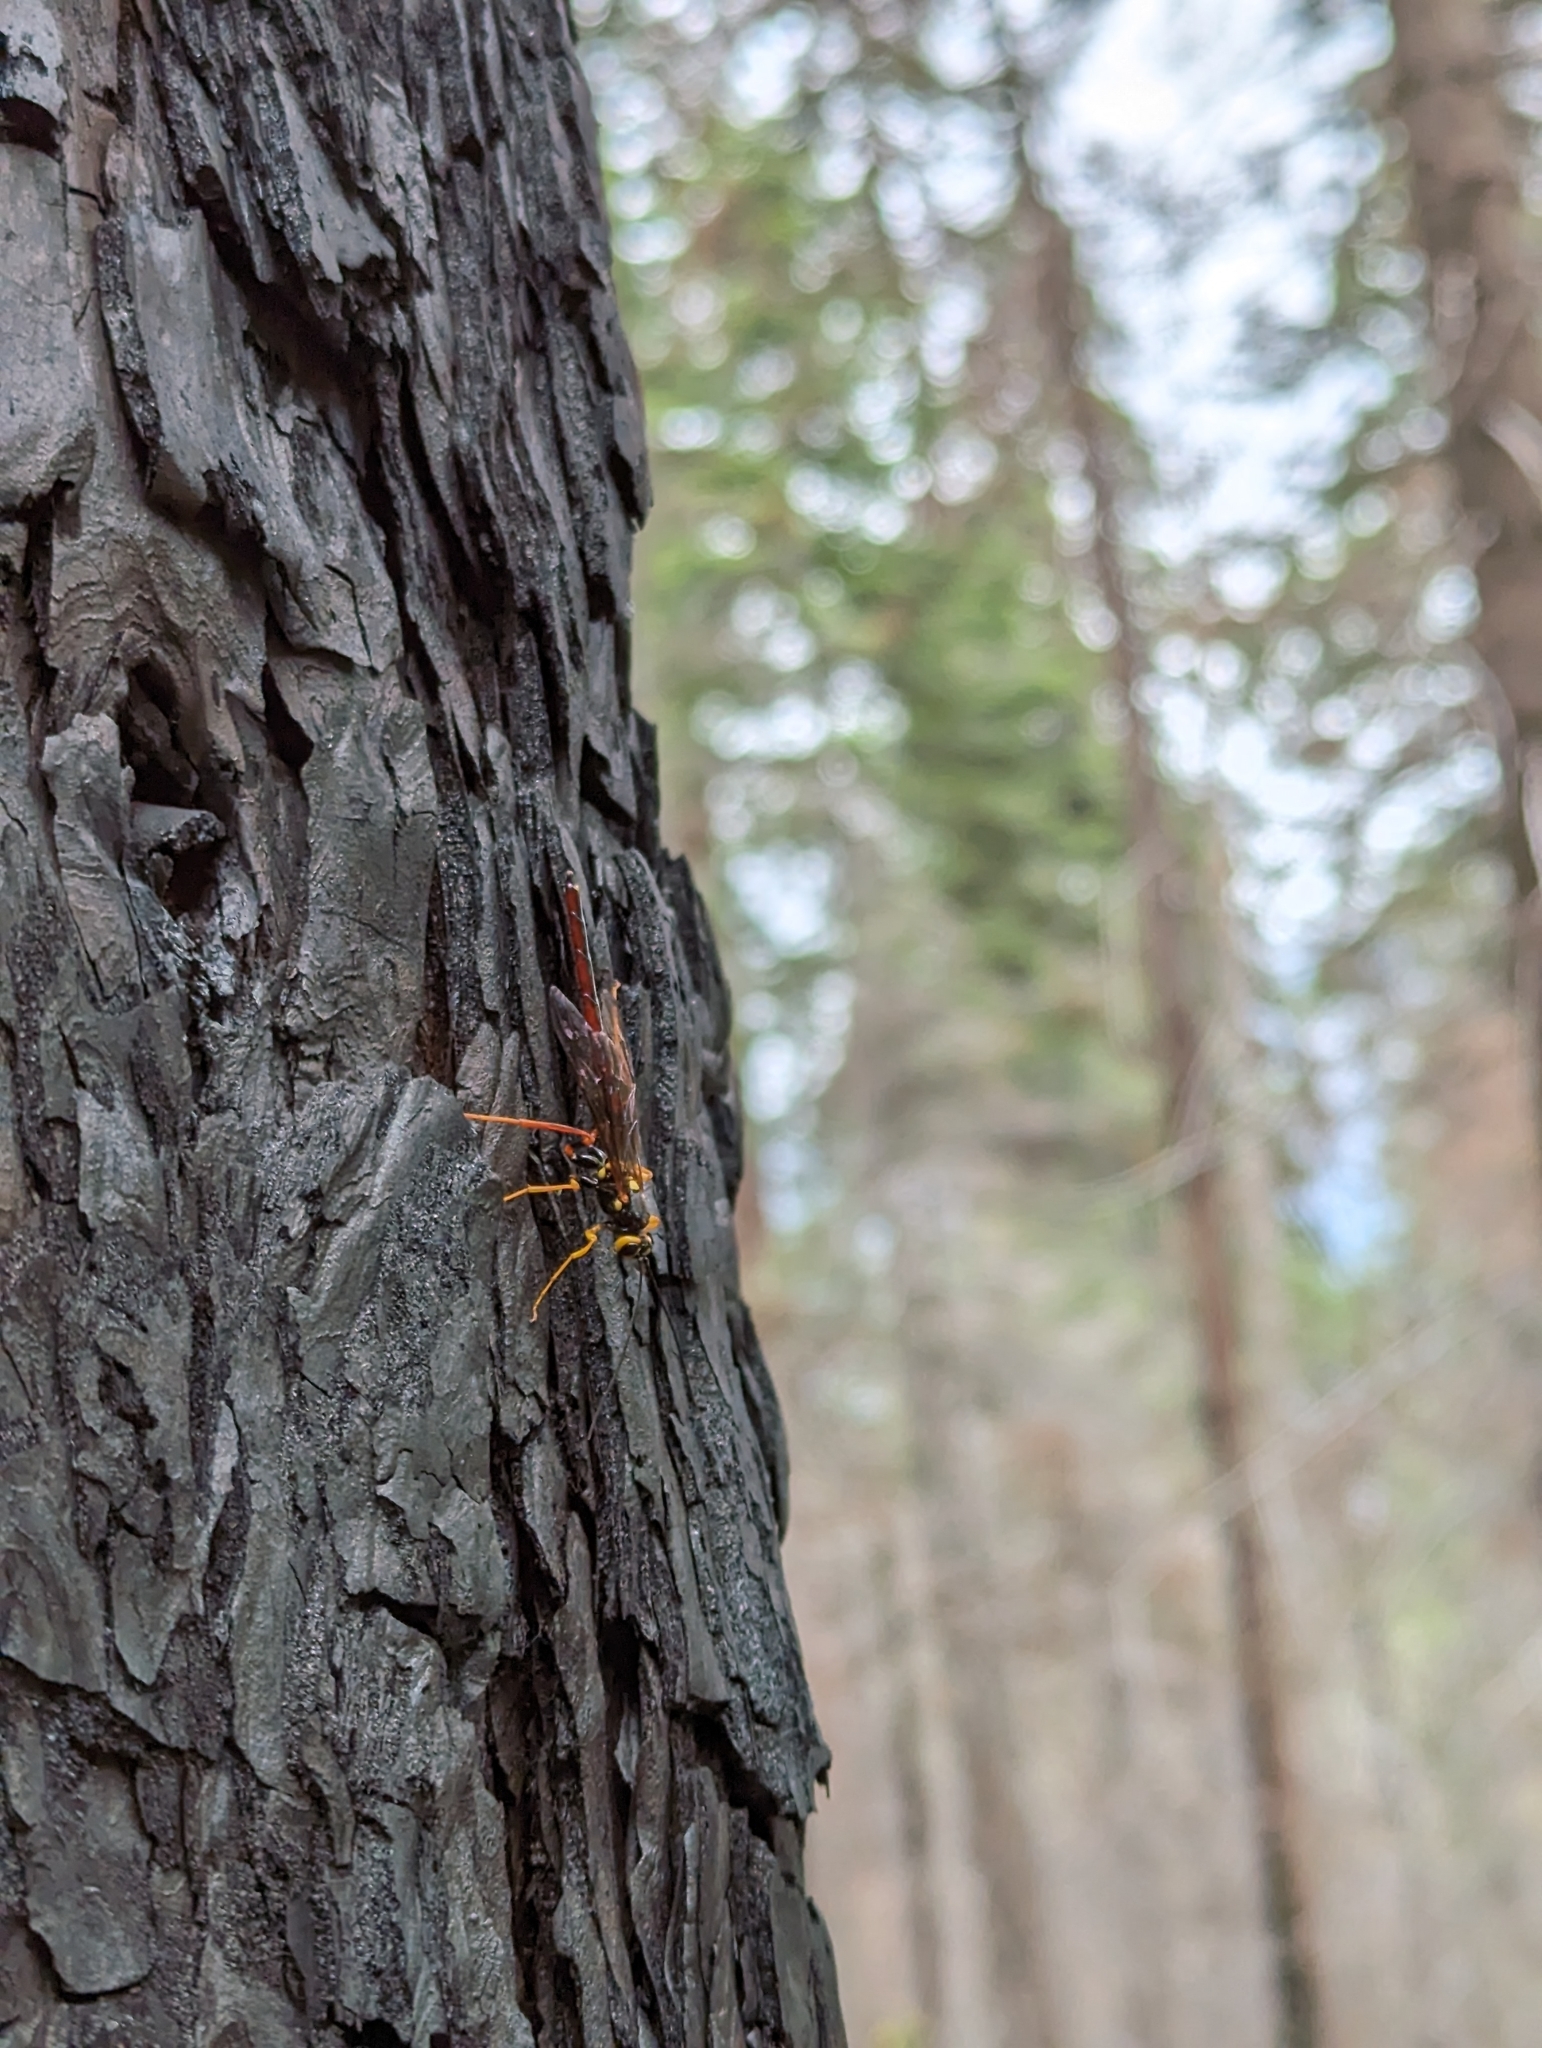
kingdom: Animalia
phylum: Arthropoda
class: Insecta
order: Hymenoptera
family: Ichneumonidae
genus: Megarhyssa
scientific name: Megarhyssa nortoni
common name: Norton's giant ichneumonid wasp
